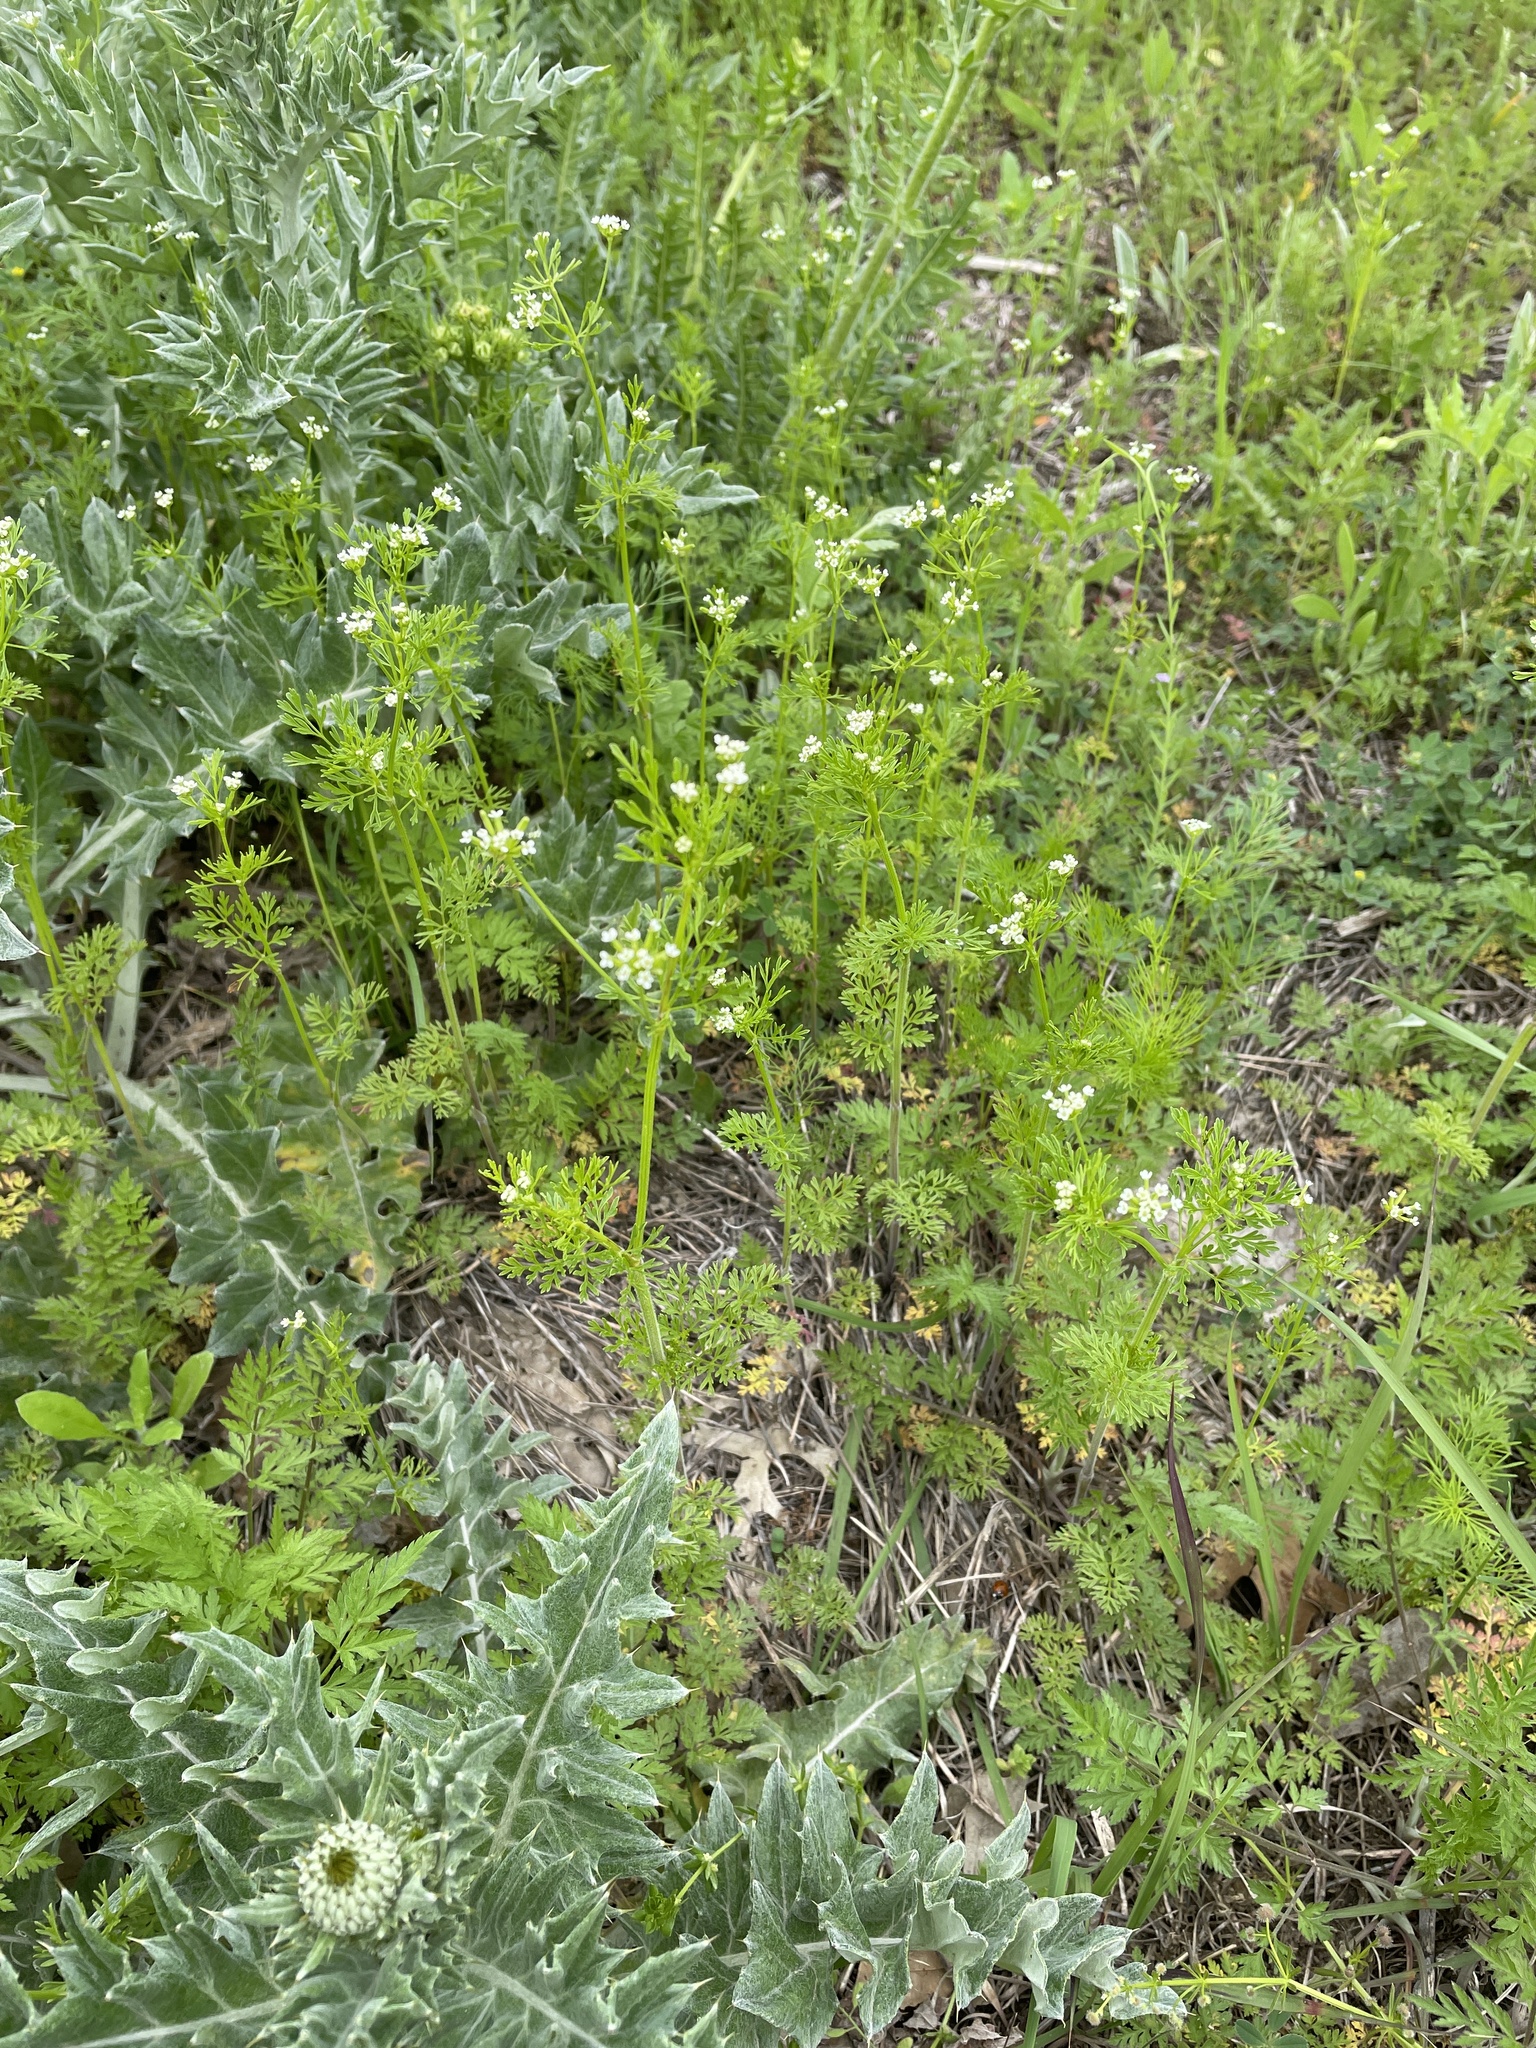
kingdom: Plantae
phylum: Tracheophyta
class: Magnoliopsida
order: Apiales
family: Apiaceae
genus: Chaerophyllum
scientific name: Chaerophyllum tainturieri
